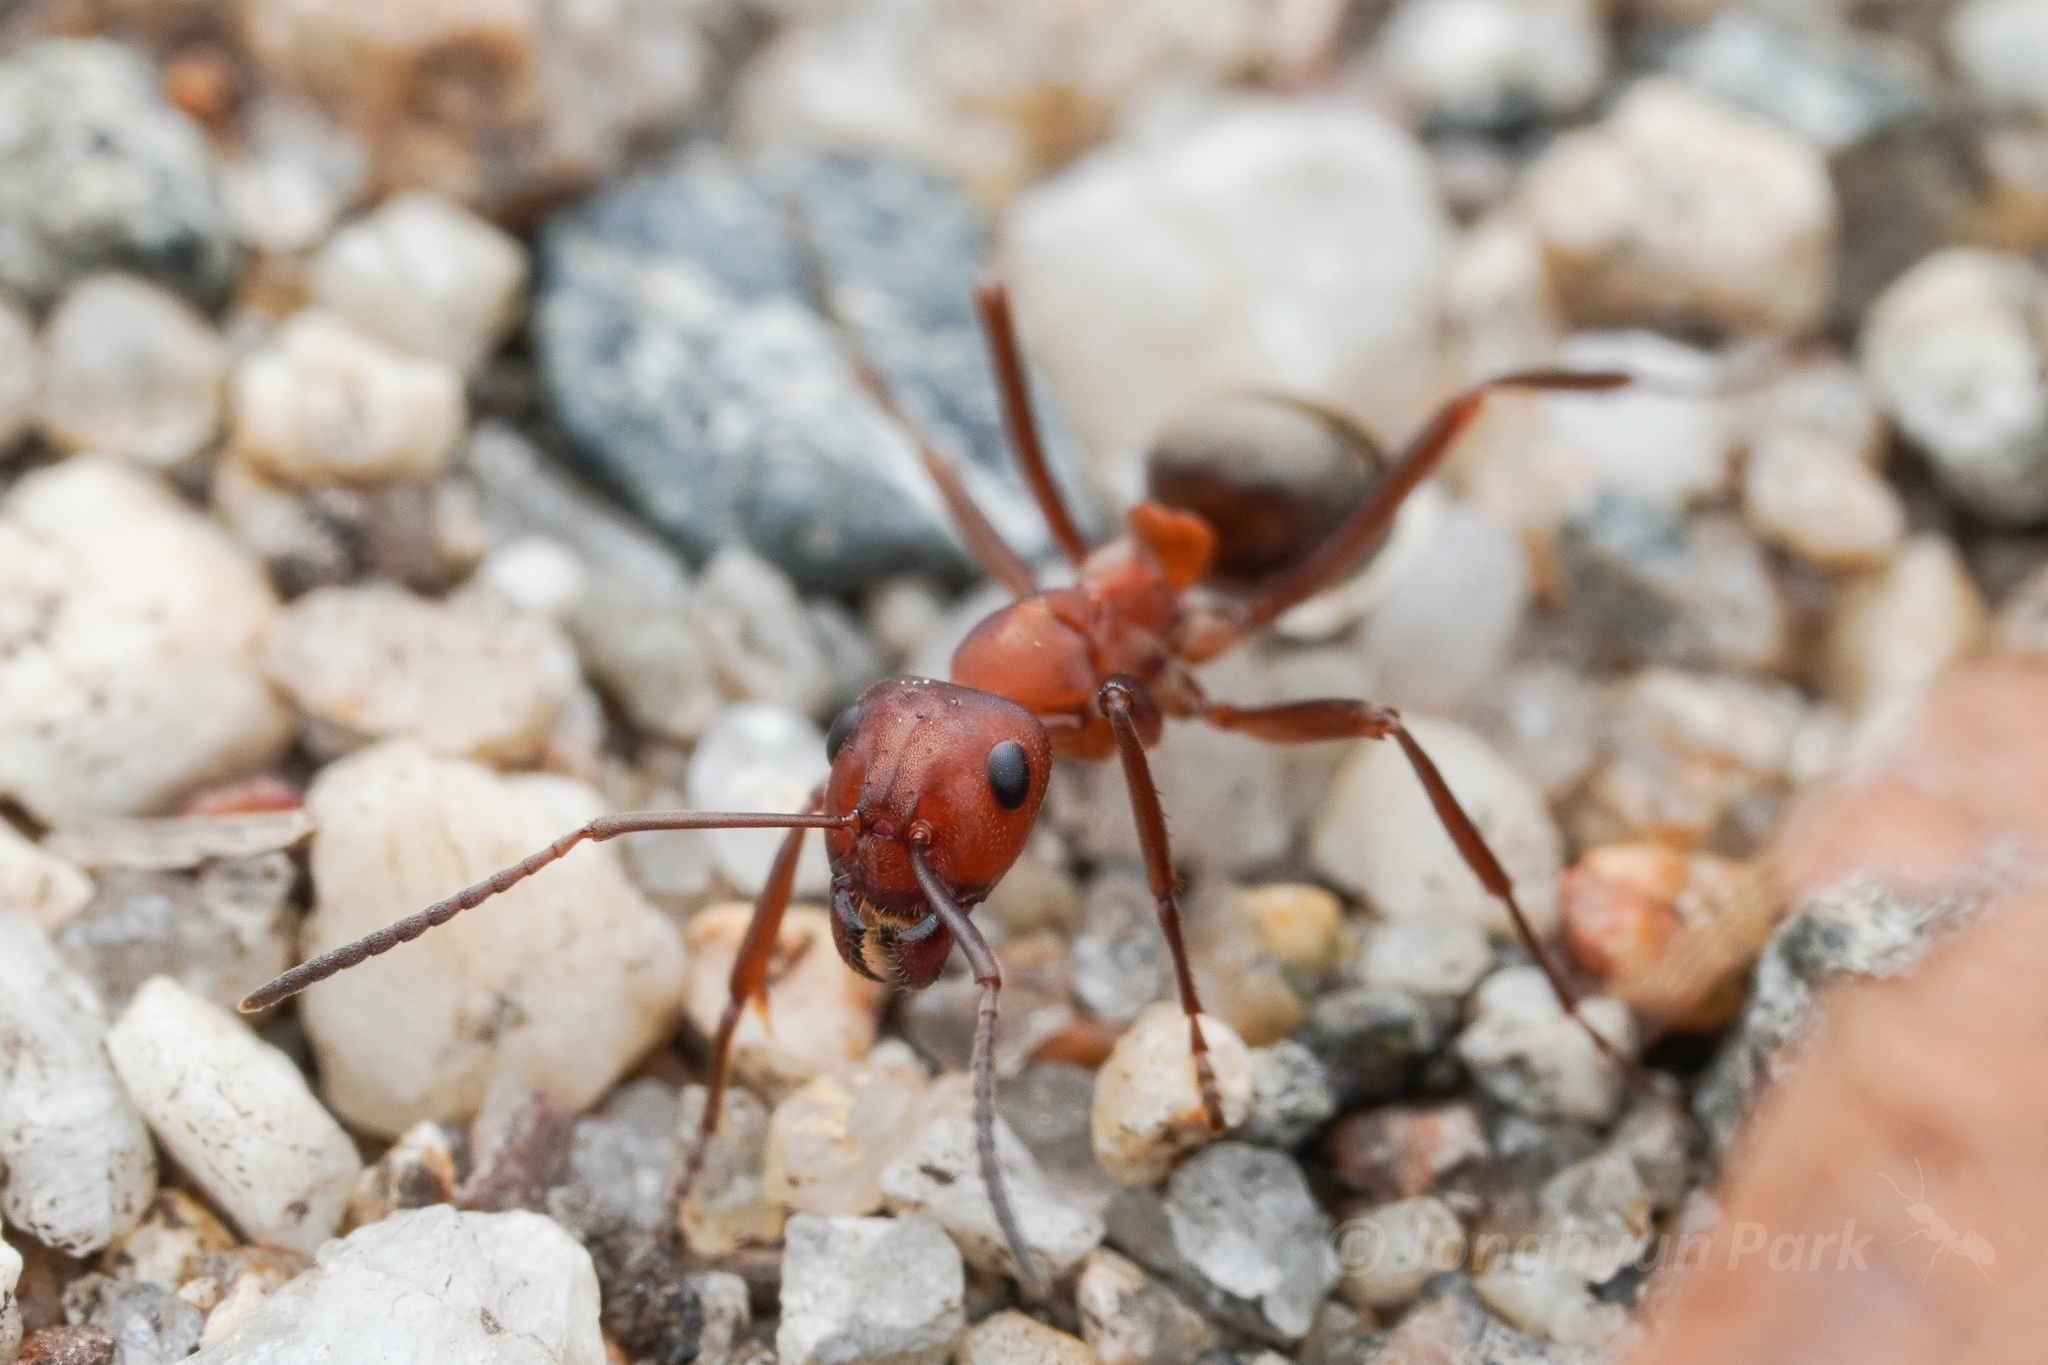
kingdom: Animalia
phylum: Arthropoda
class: Insecta
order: Hymenoptera
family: Formicidae
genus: Formica
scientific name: Formica subintegra
